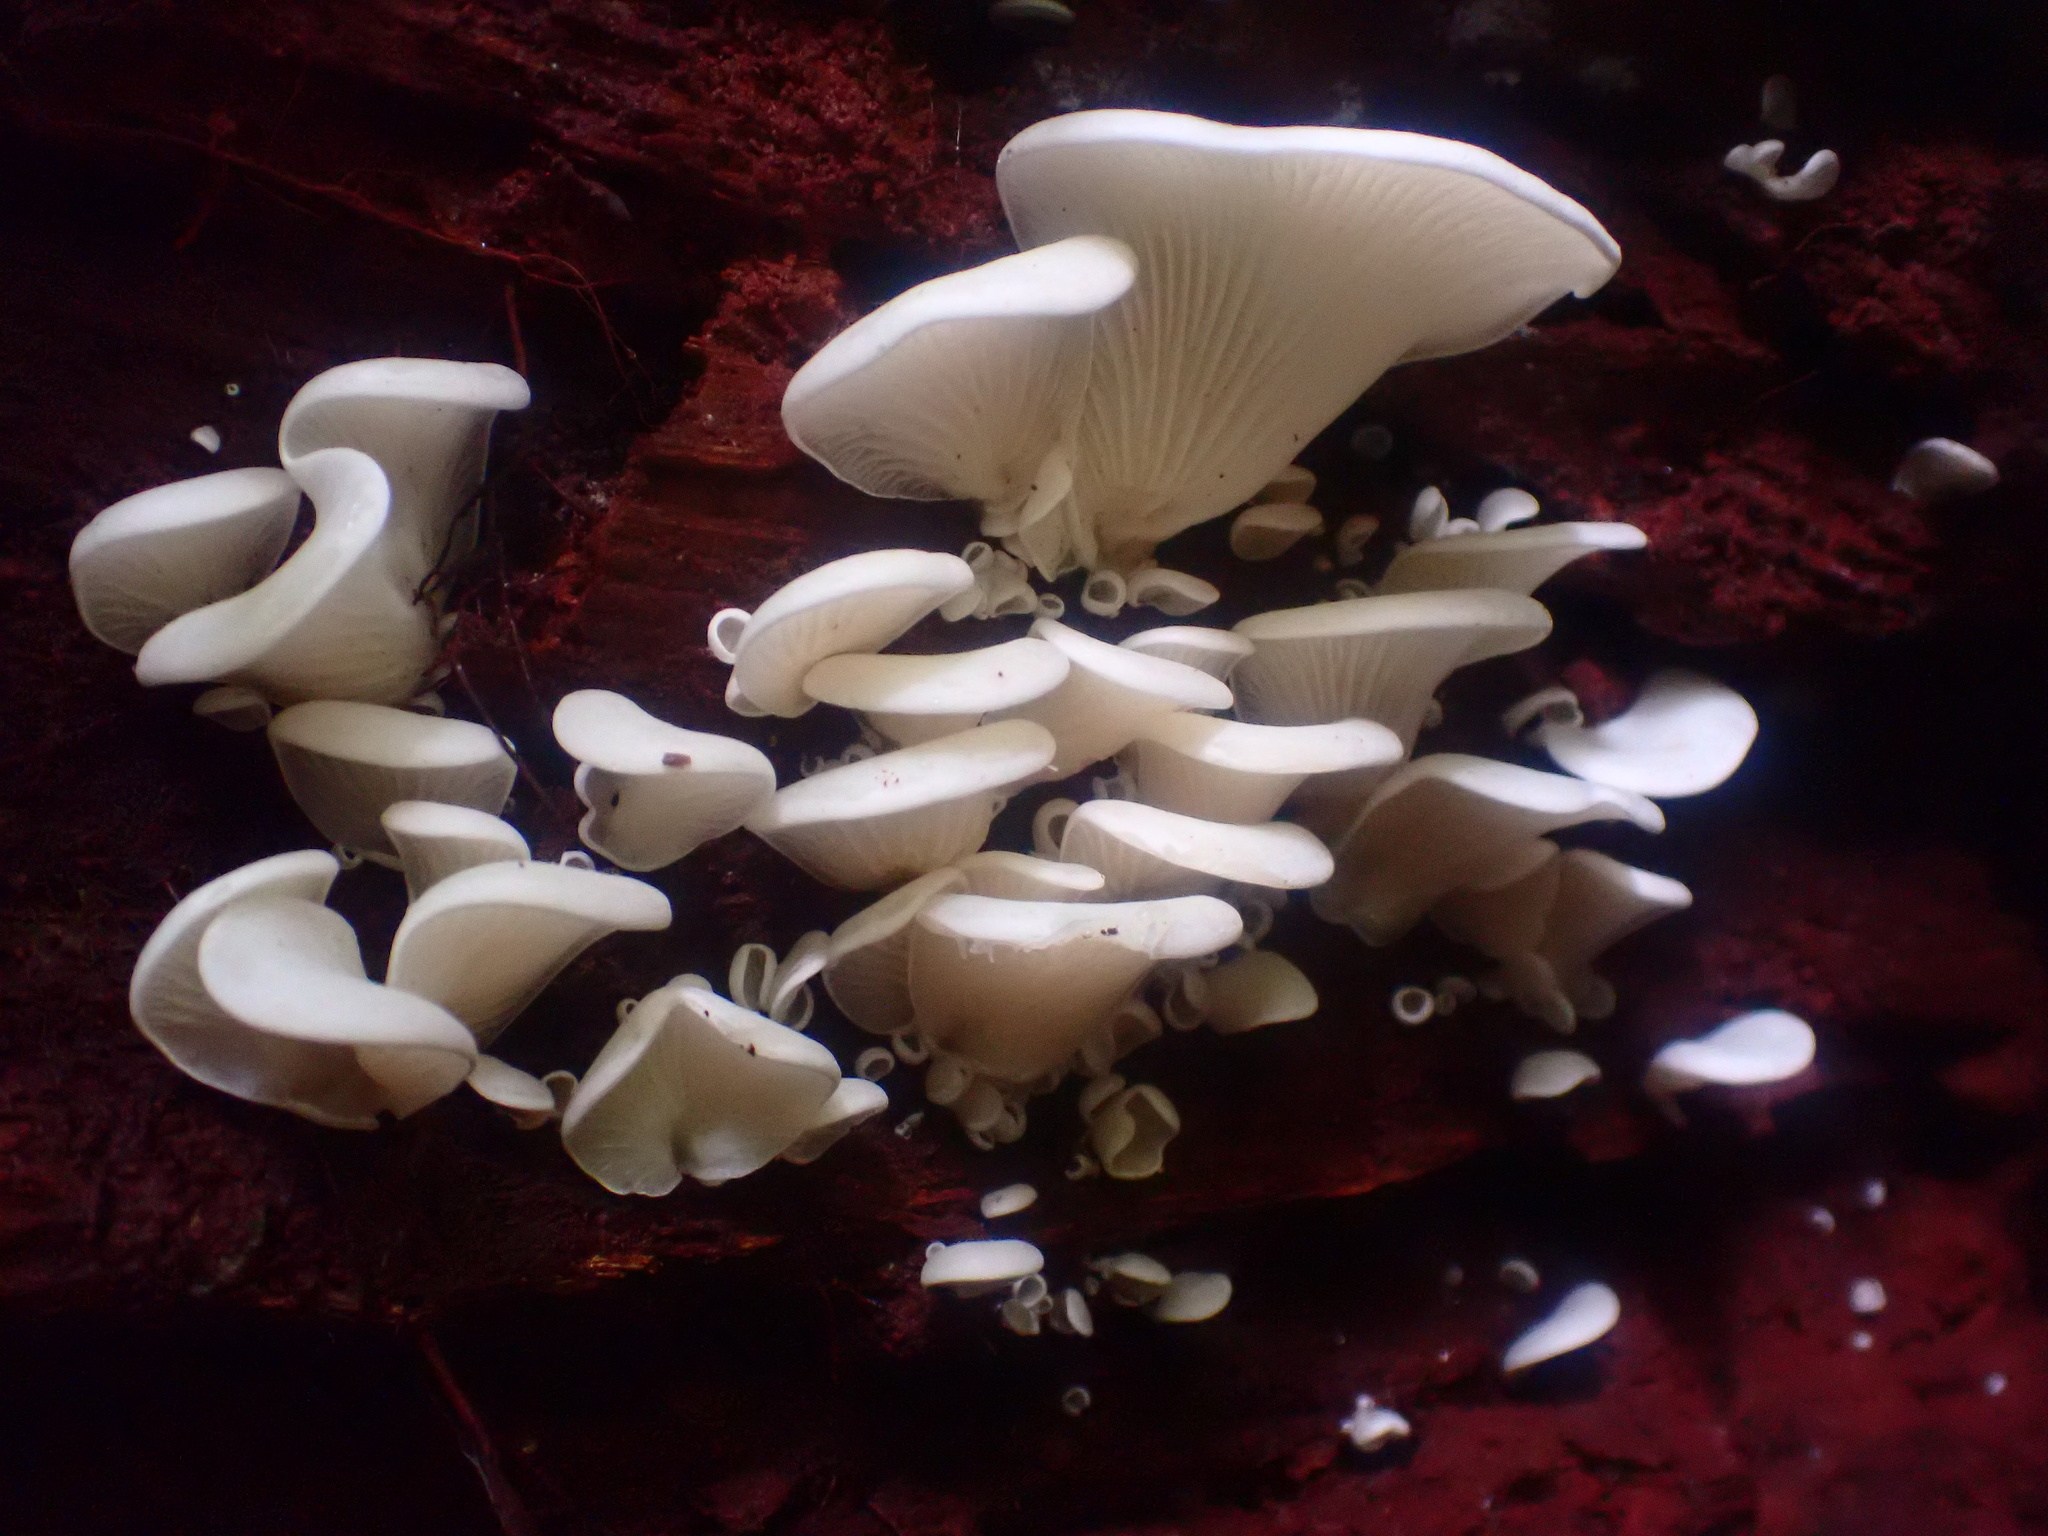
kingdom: Fungi
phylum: Basidiomycota
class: Agaricomycetes
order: Agaricales
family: Marasmiaceae
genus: Pleurocybella
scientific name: Pleurocybella porrigens
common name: Angel's wings
